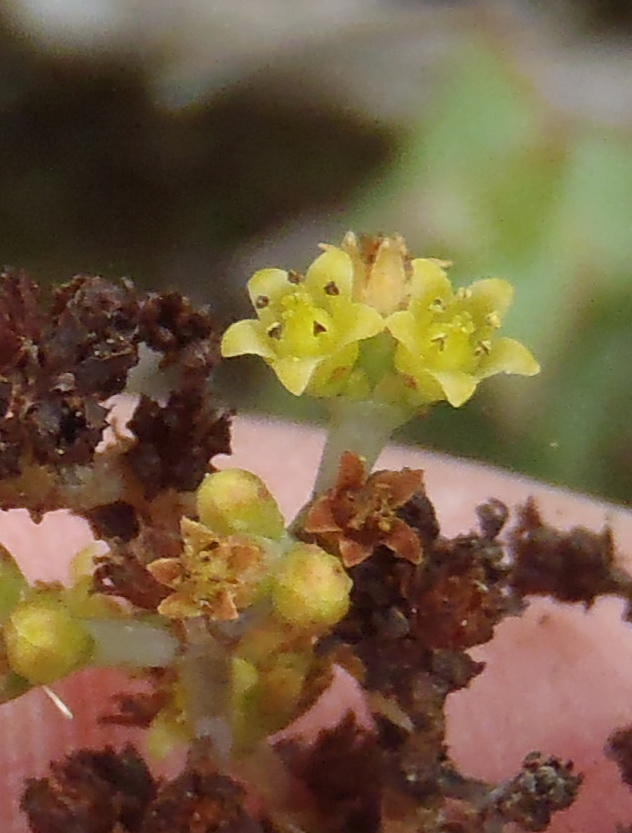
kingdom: Plantae
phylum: Tracheophyta
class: Magnoliopsida
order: Saxifragales
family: Crassulaceae
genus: Crassula
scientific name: Crassula perforata
